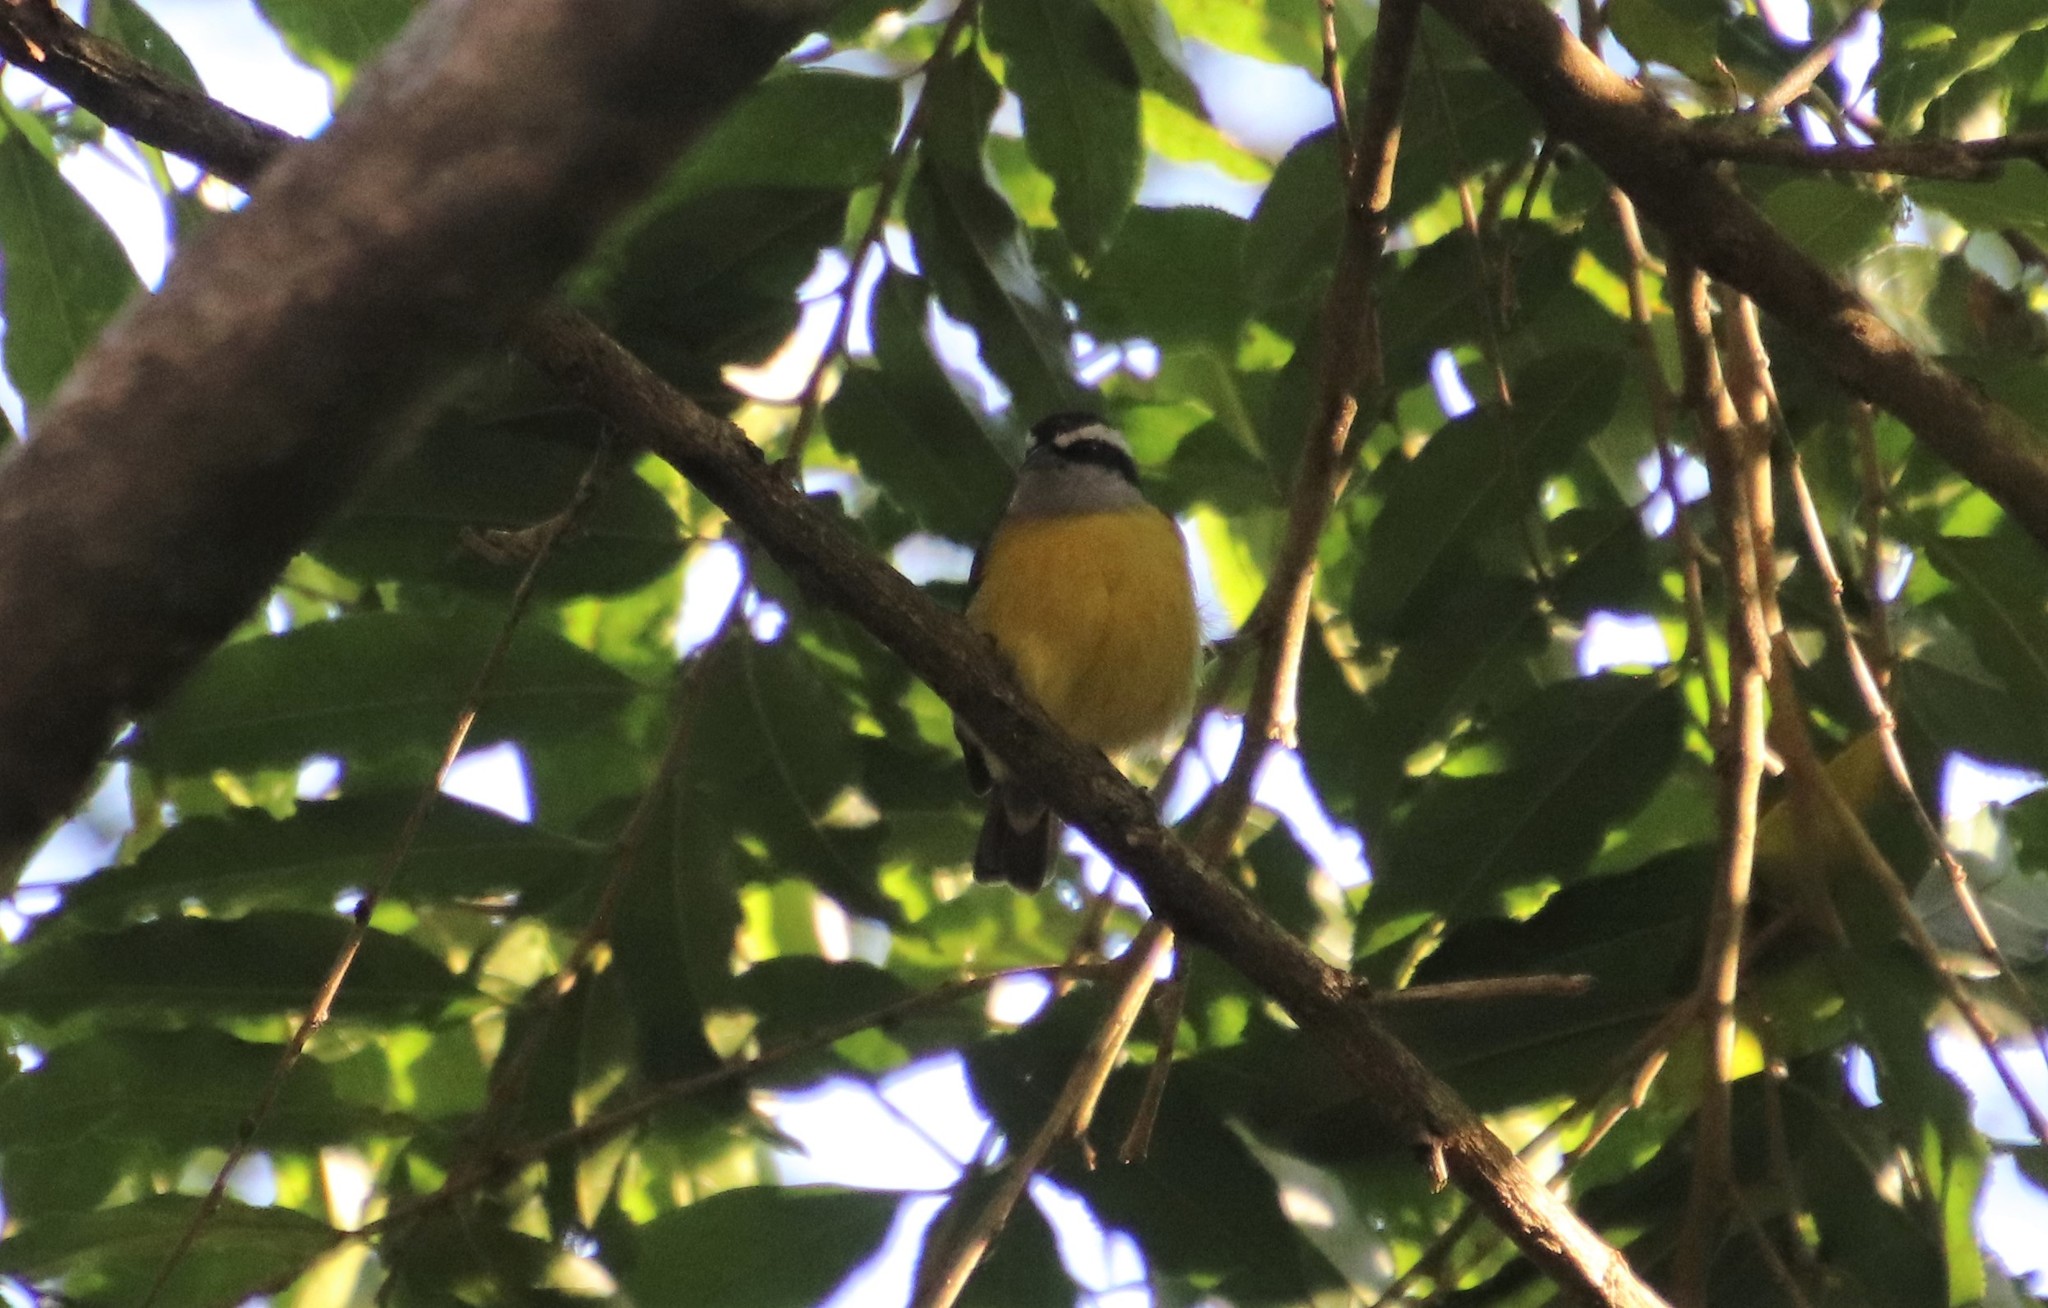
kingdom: Animalia
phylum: Chordata
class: Aves
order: Passeriformes
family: Thraupidae
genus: Coereba
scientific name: Coereba flaveola
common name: Bananaquit
